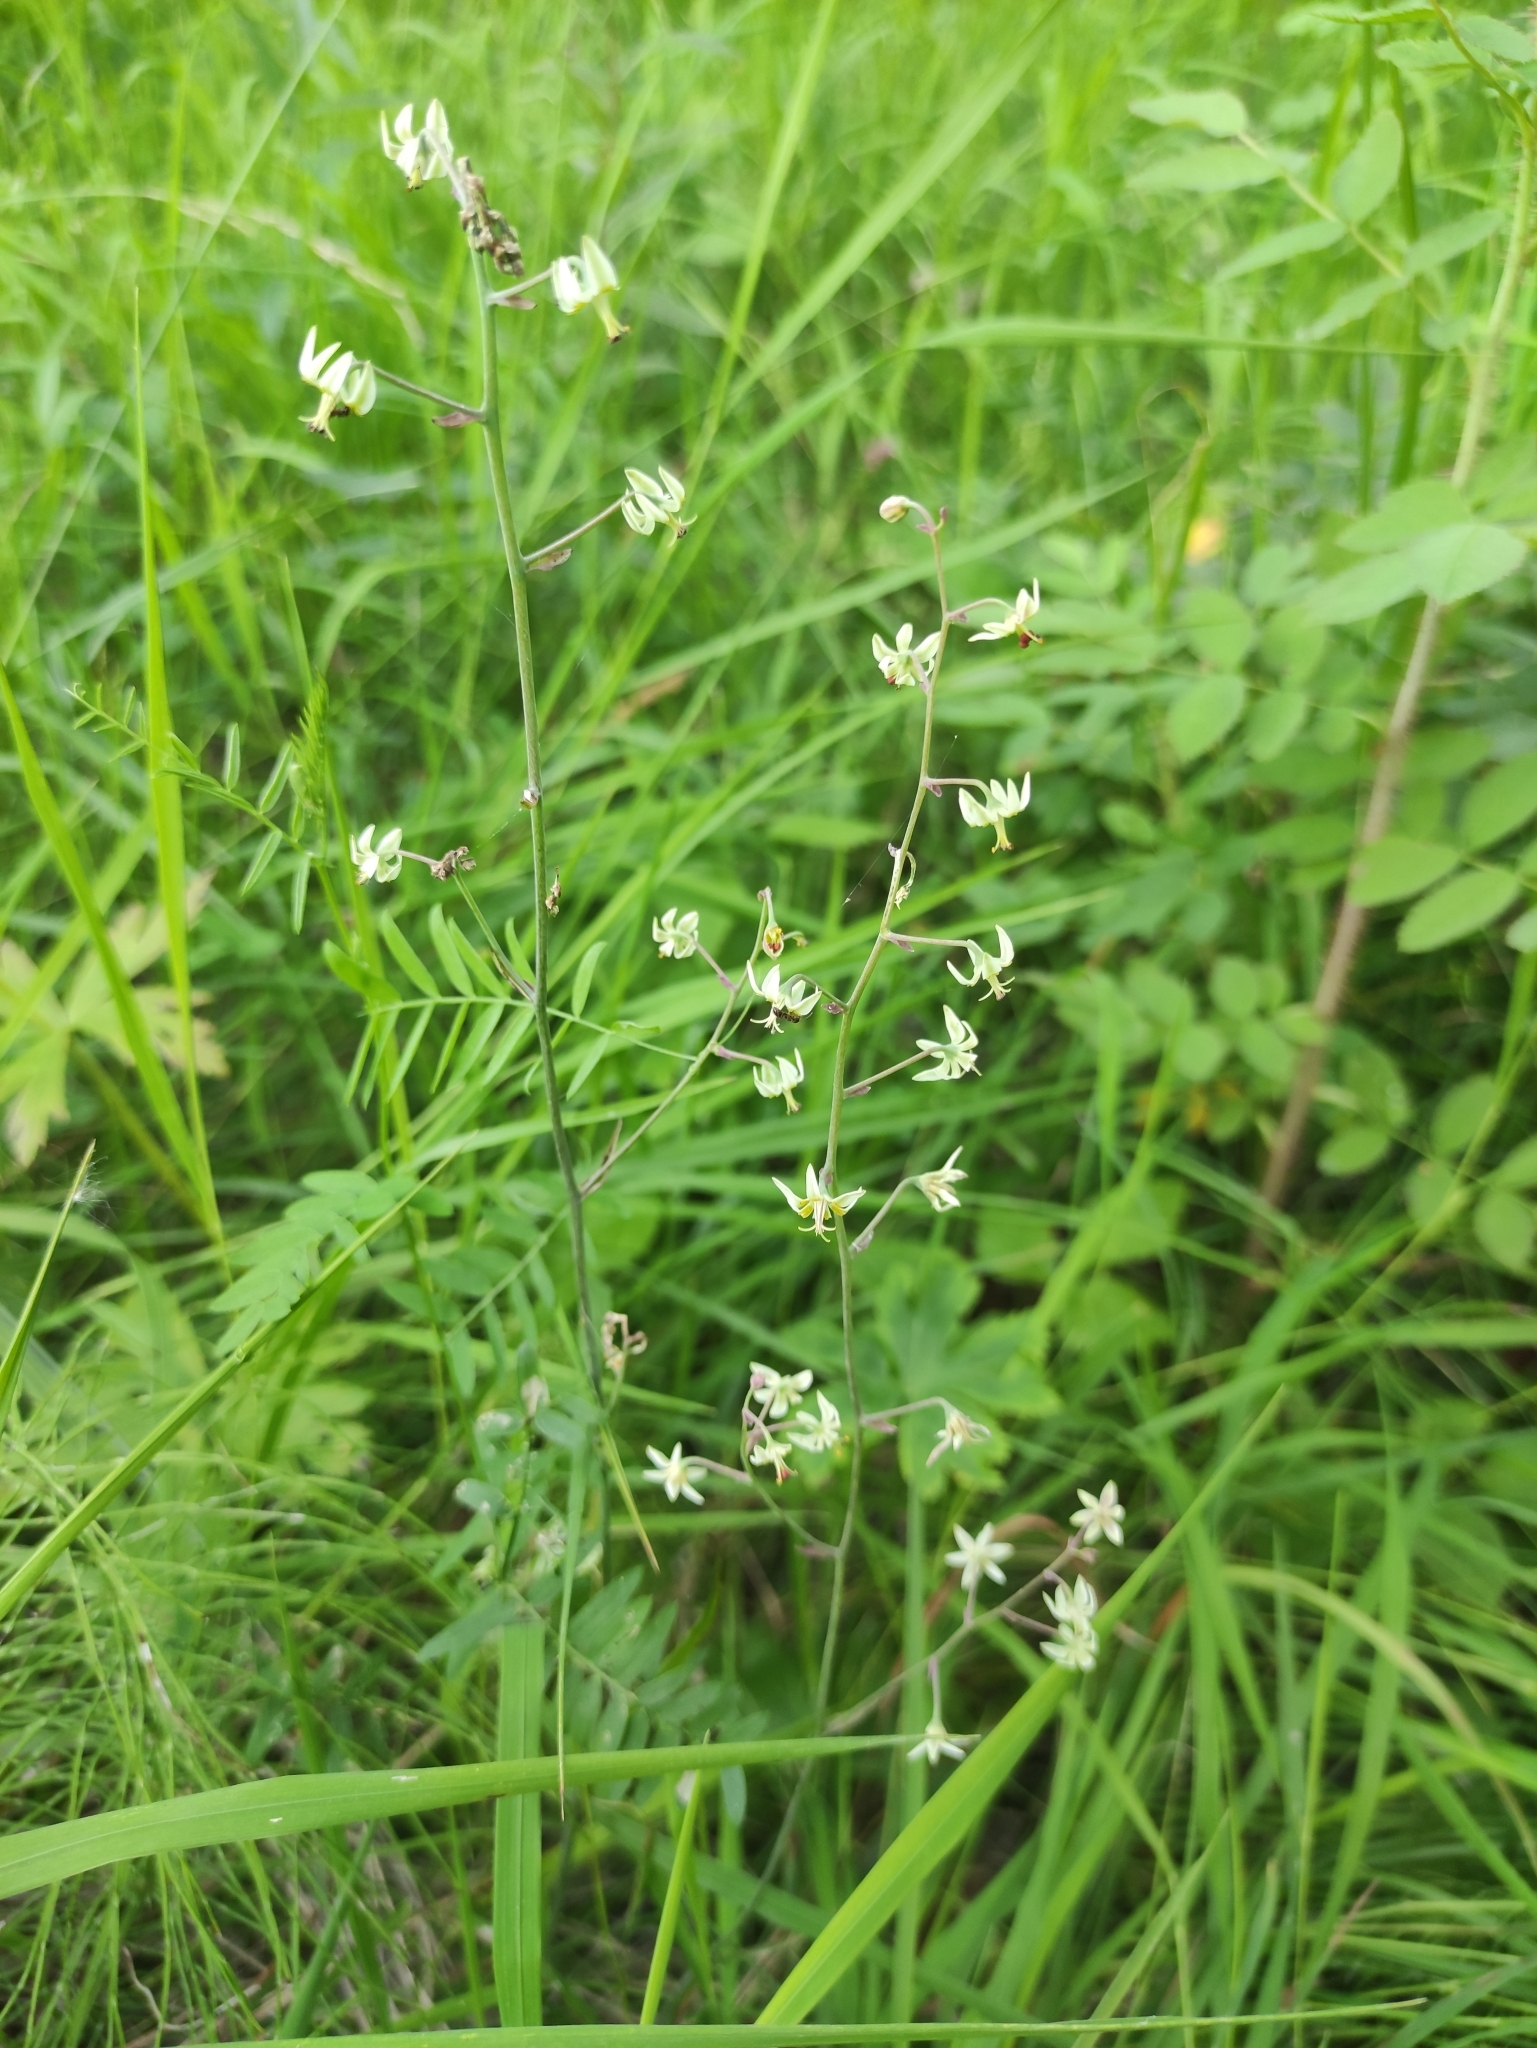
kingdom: Plantae
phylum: Tracheophyta
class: Liliopsida
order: Liliales
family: Melanthiaceae
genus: Anticlea
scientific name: Anticlea sibirica
